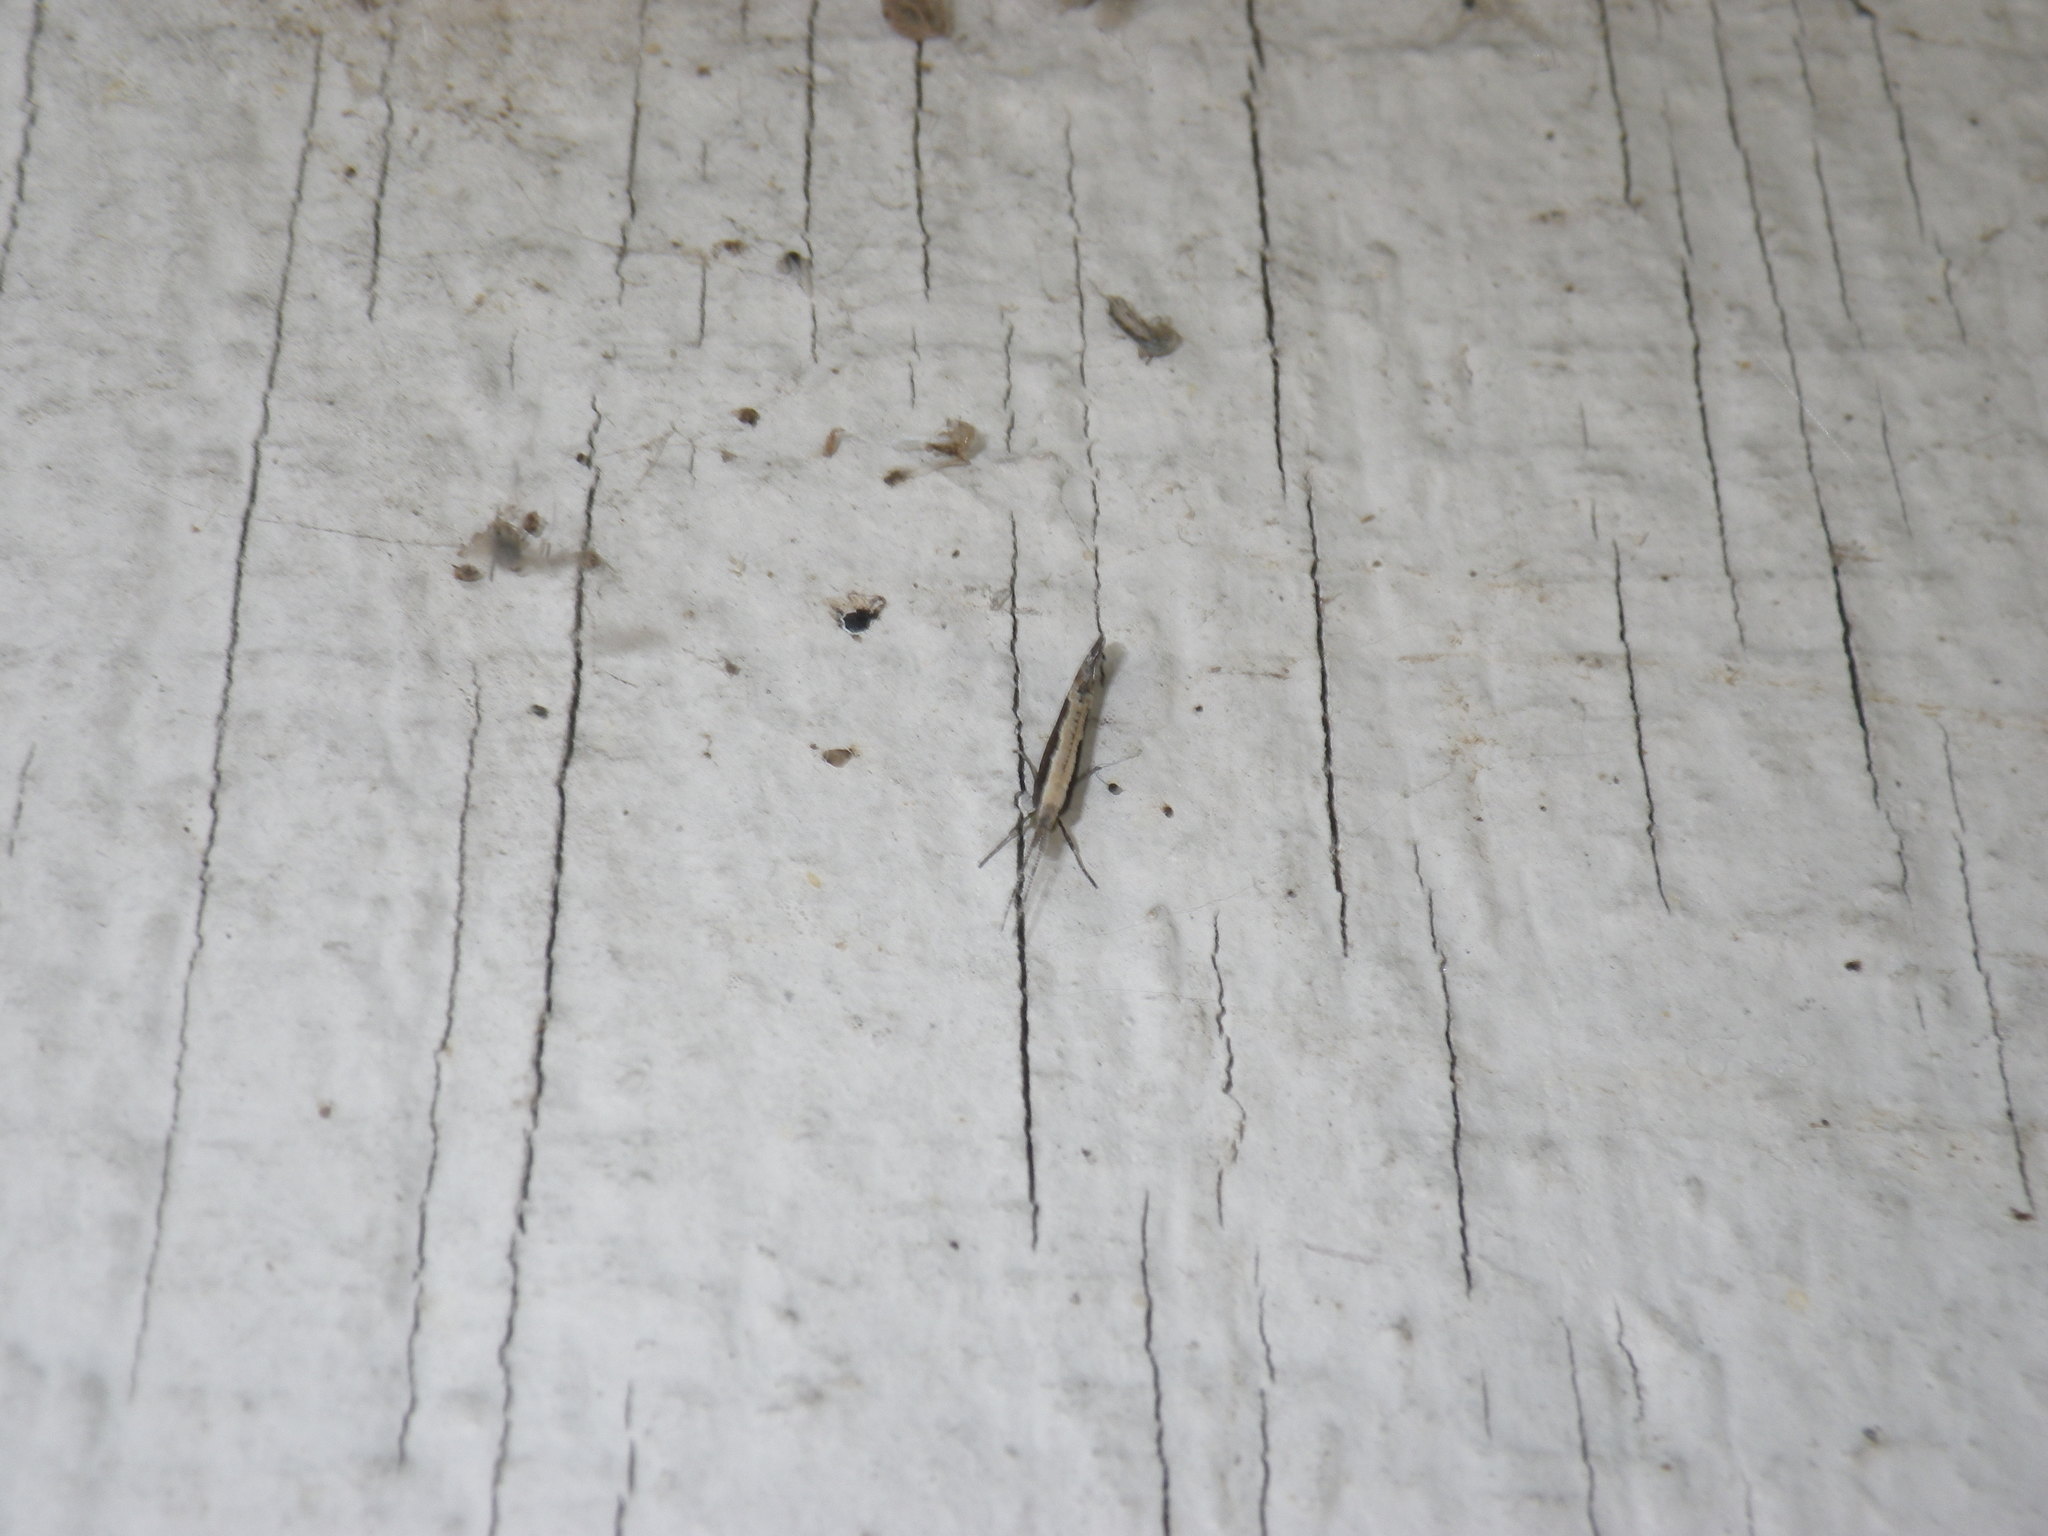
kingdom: Animalia
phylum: Arthropoda
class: Insecta
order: Lepidoptera
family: Plutellidae
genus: Plutella
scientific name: Plutella xylostella
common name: Diamond-back moth
